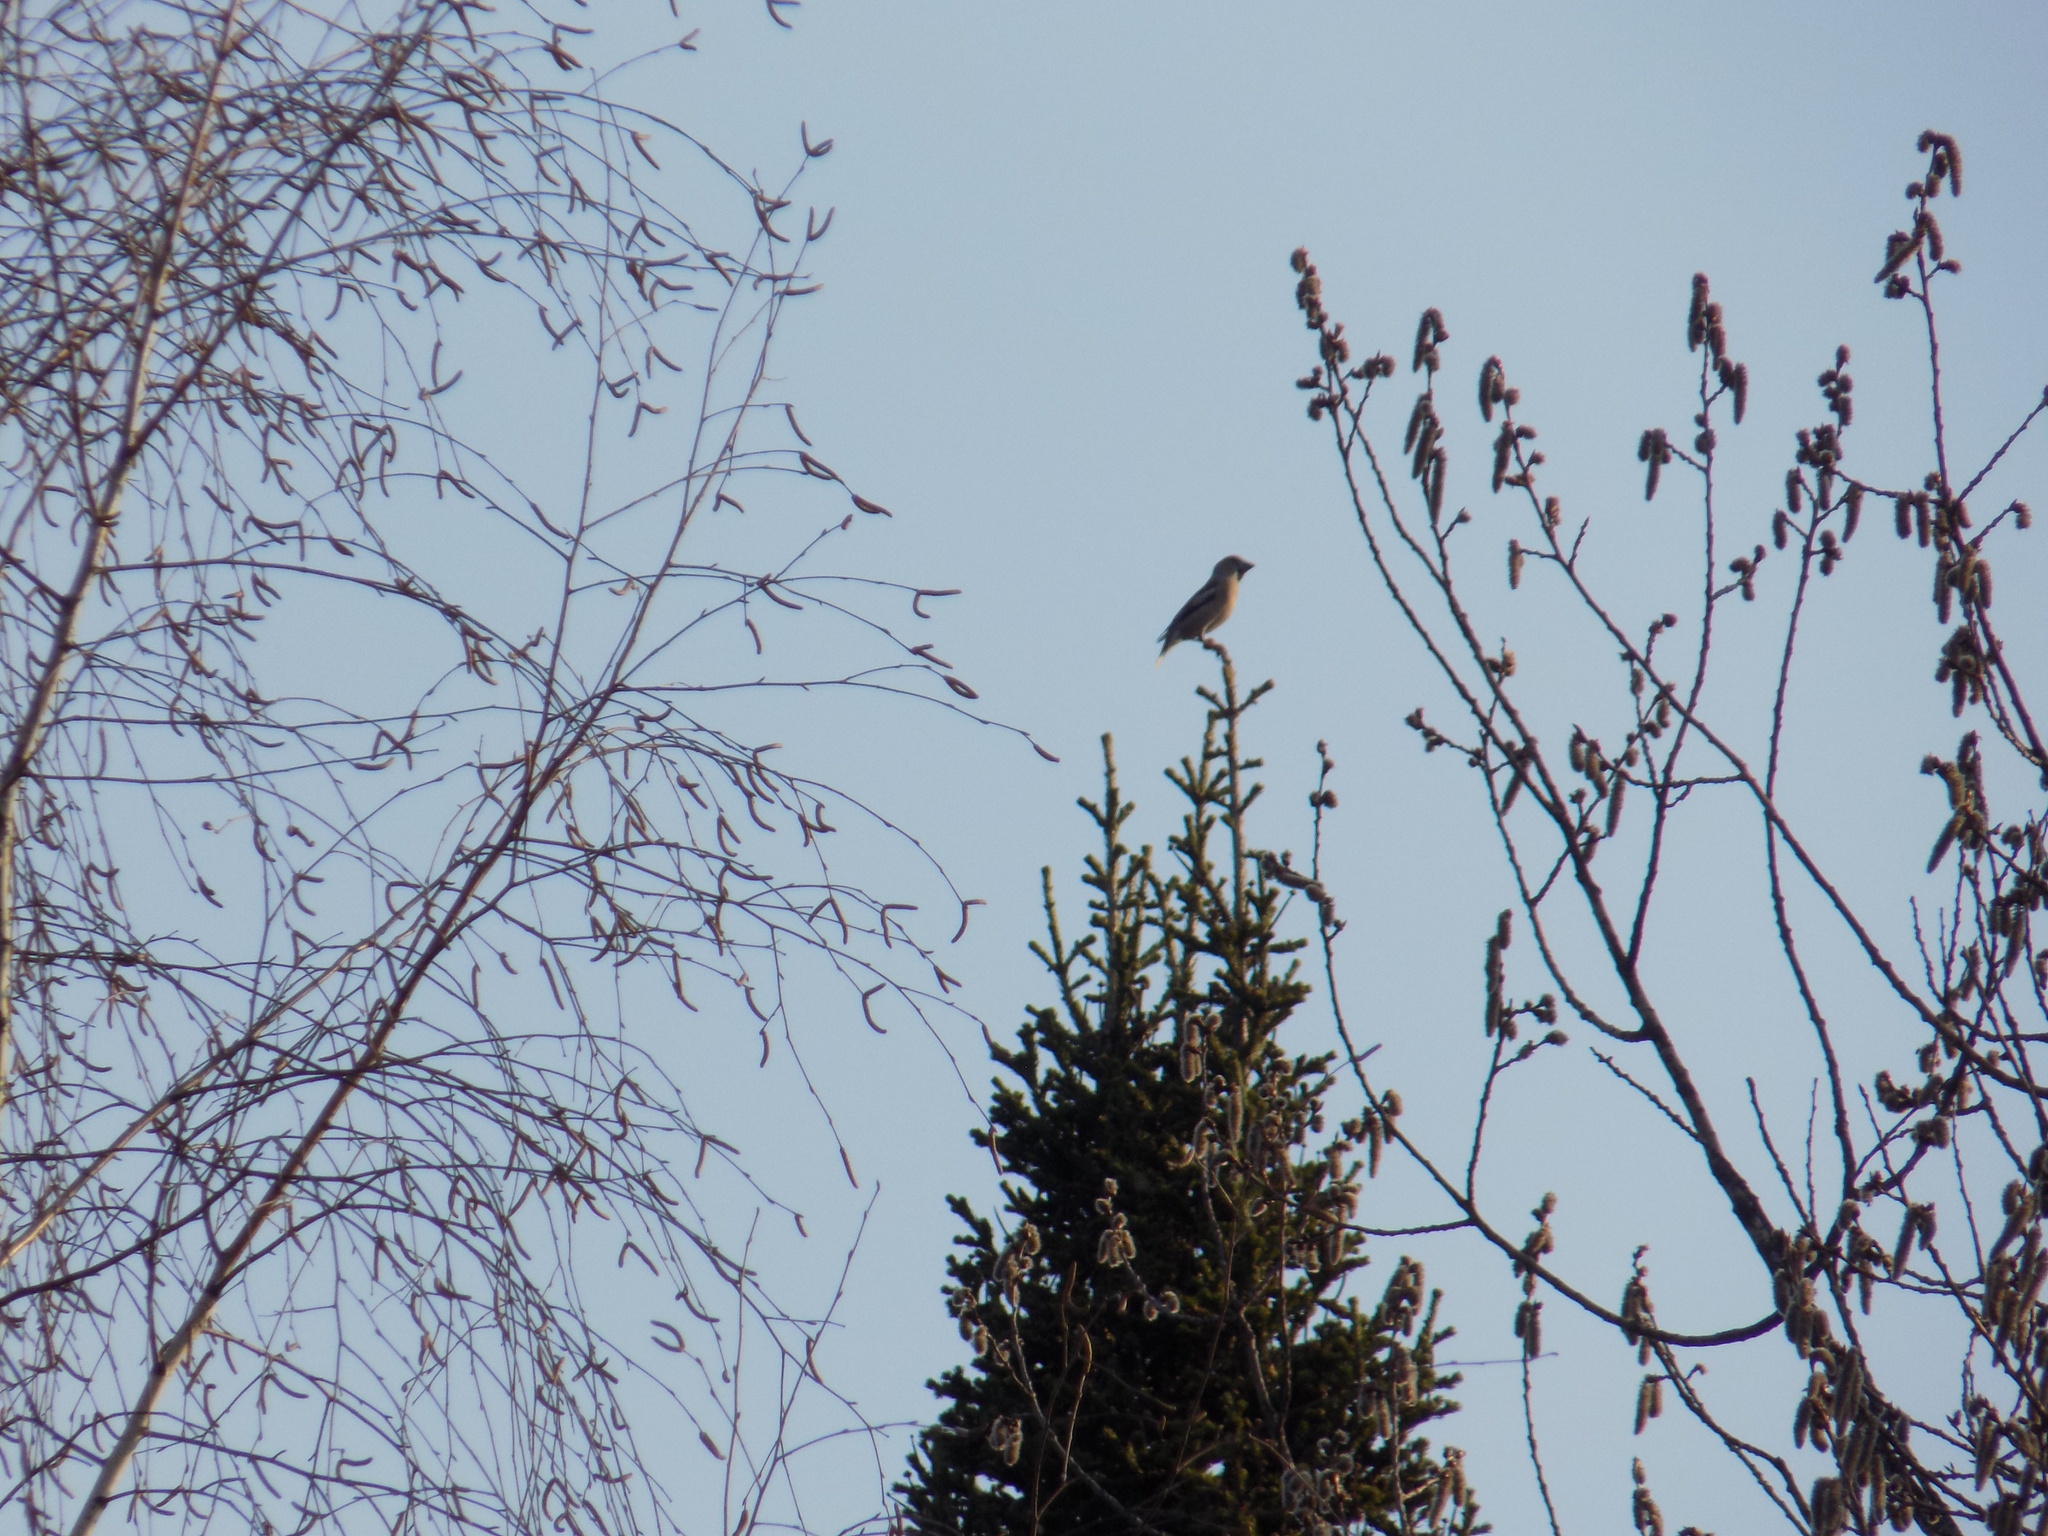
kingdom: Animalia
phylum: Chordata
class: Aves
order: Passeriformes
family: Fringillidae
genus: Coccothraustes
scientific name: Coccothraustes coccothraustes
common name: Hawfinch
